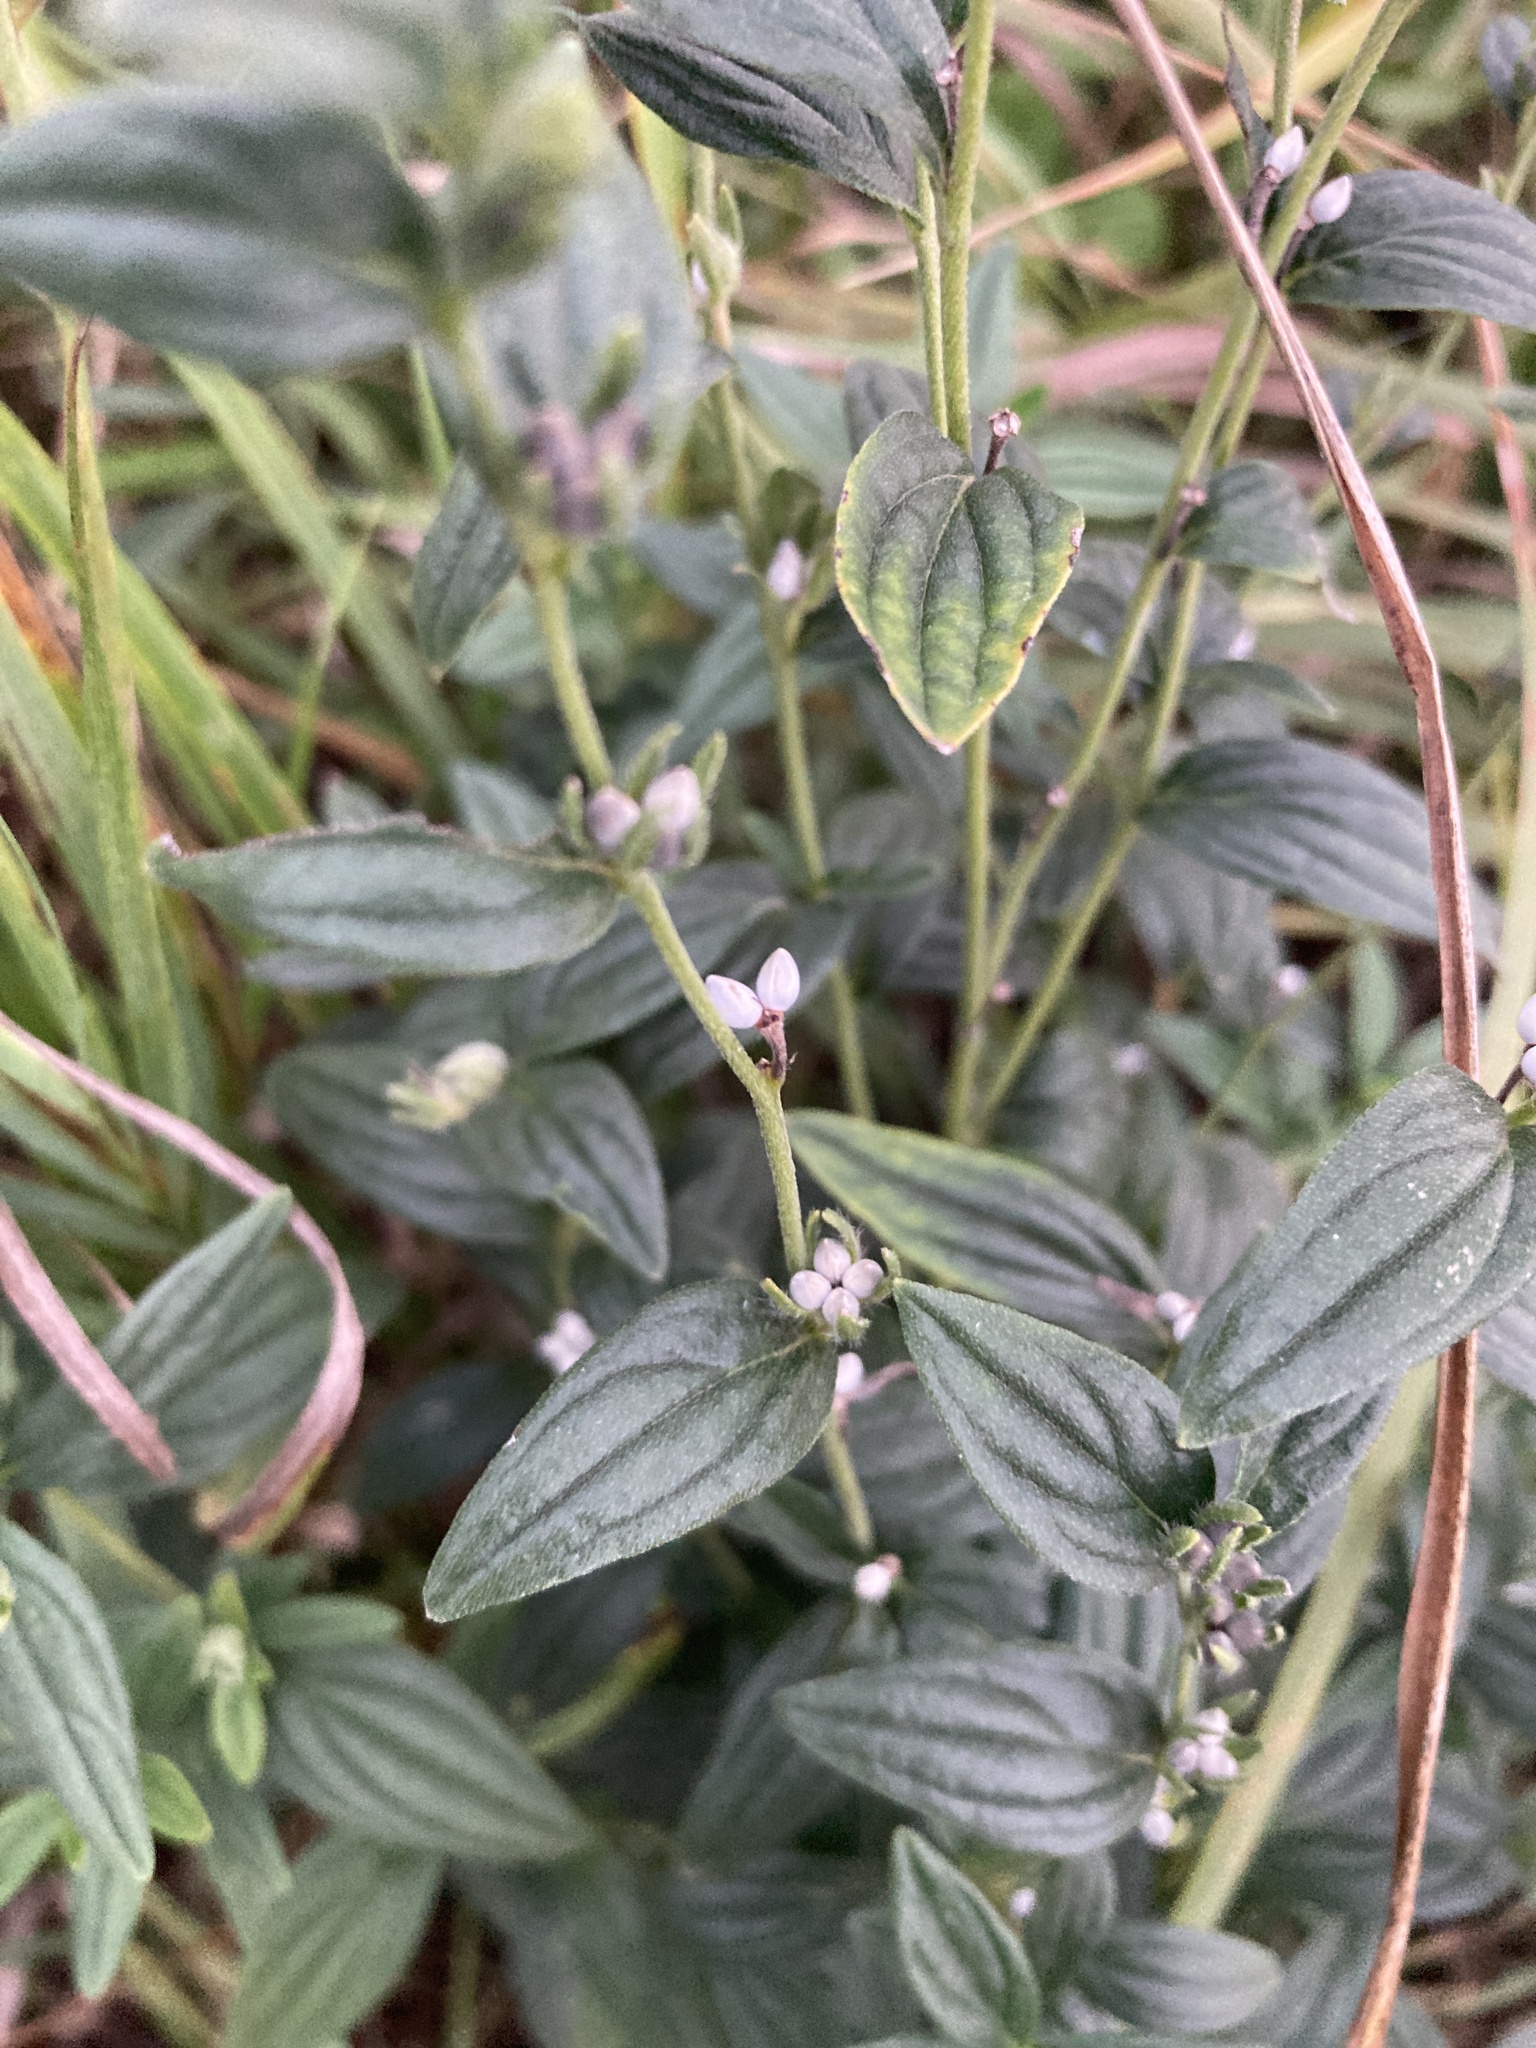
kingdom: Plantae
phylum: Tracheophyta
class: Magnoliopsida
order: Boraginales
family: Boraginaceae
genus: Lithospermum
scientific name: Lithospermum officinale
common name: Common gromwell
